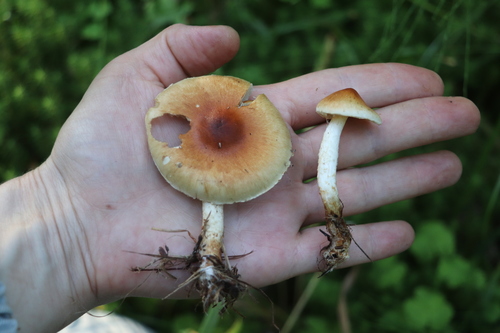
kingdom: Fungi
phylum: Basidiomycota
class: Agaricomycetes
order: Agaricales
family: Strophariaceae
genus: Pholiota
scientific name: Pholiota lubrica
